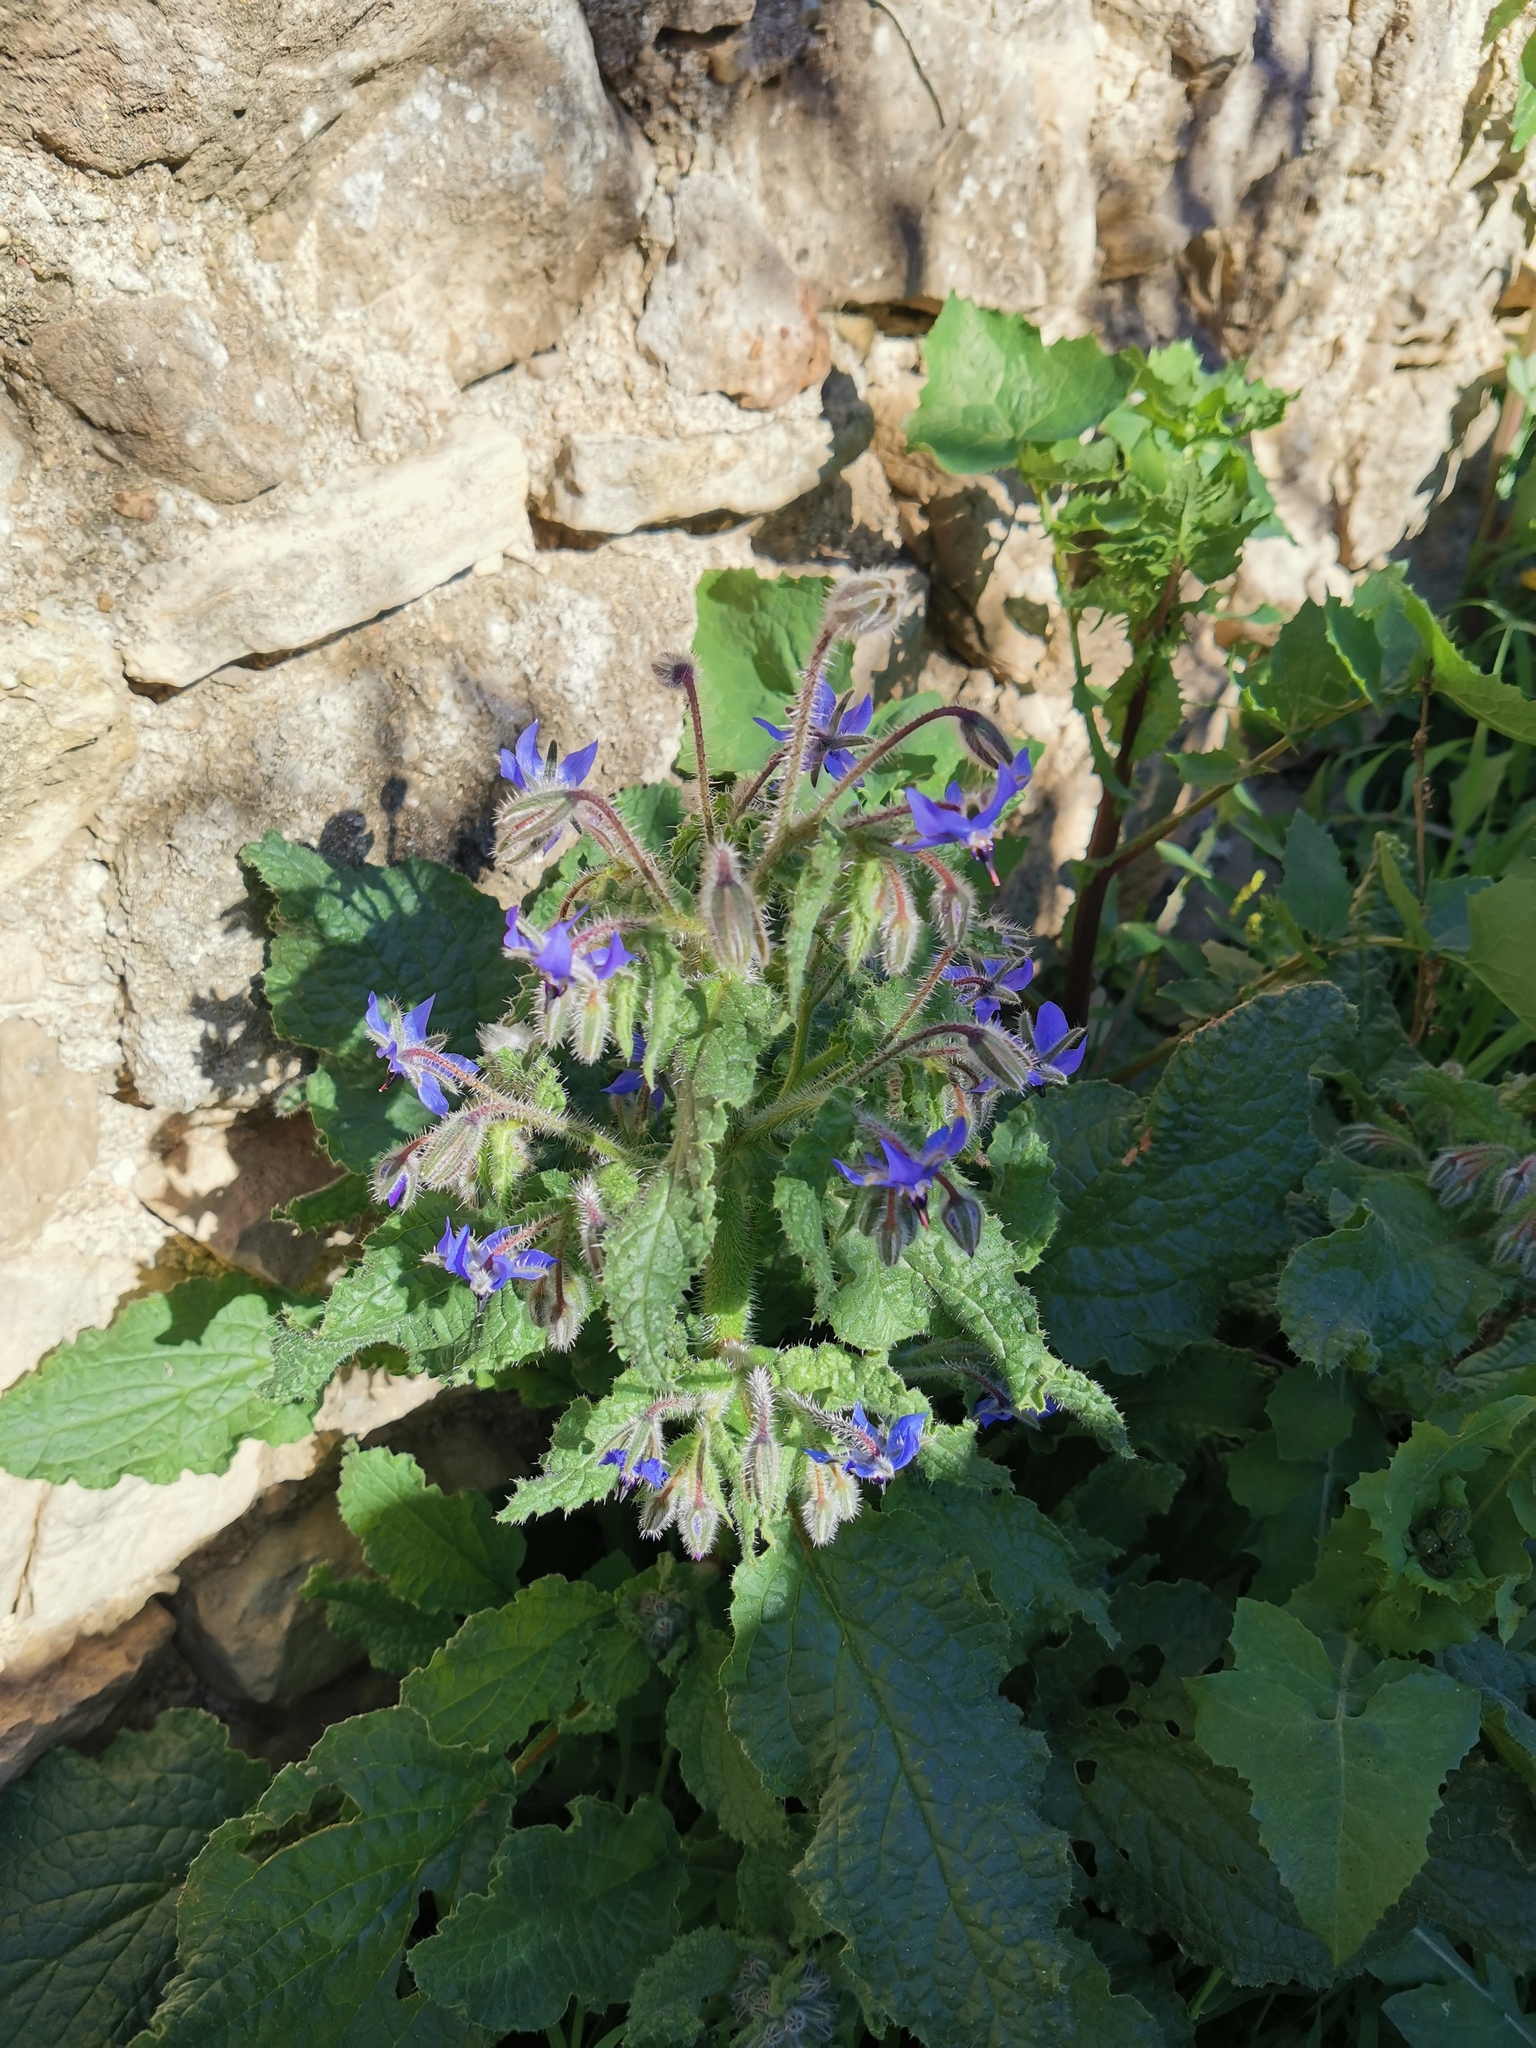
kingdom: Plantae
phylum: Tracheophyta
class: Magnoliopsida
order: Boraginales
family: Boraginaceae
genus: Borago
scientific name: Borago officinalis
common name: Borage
